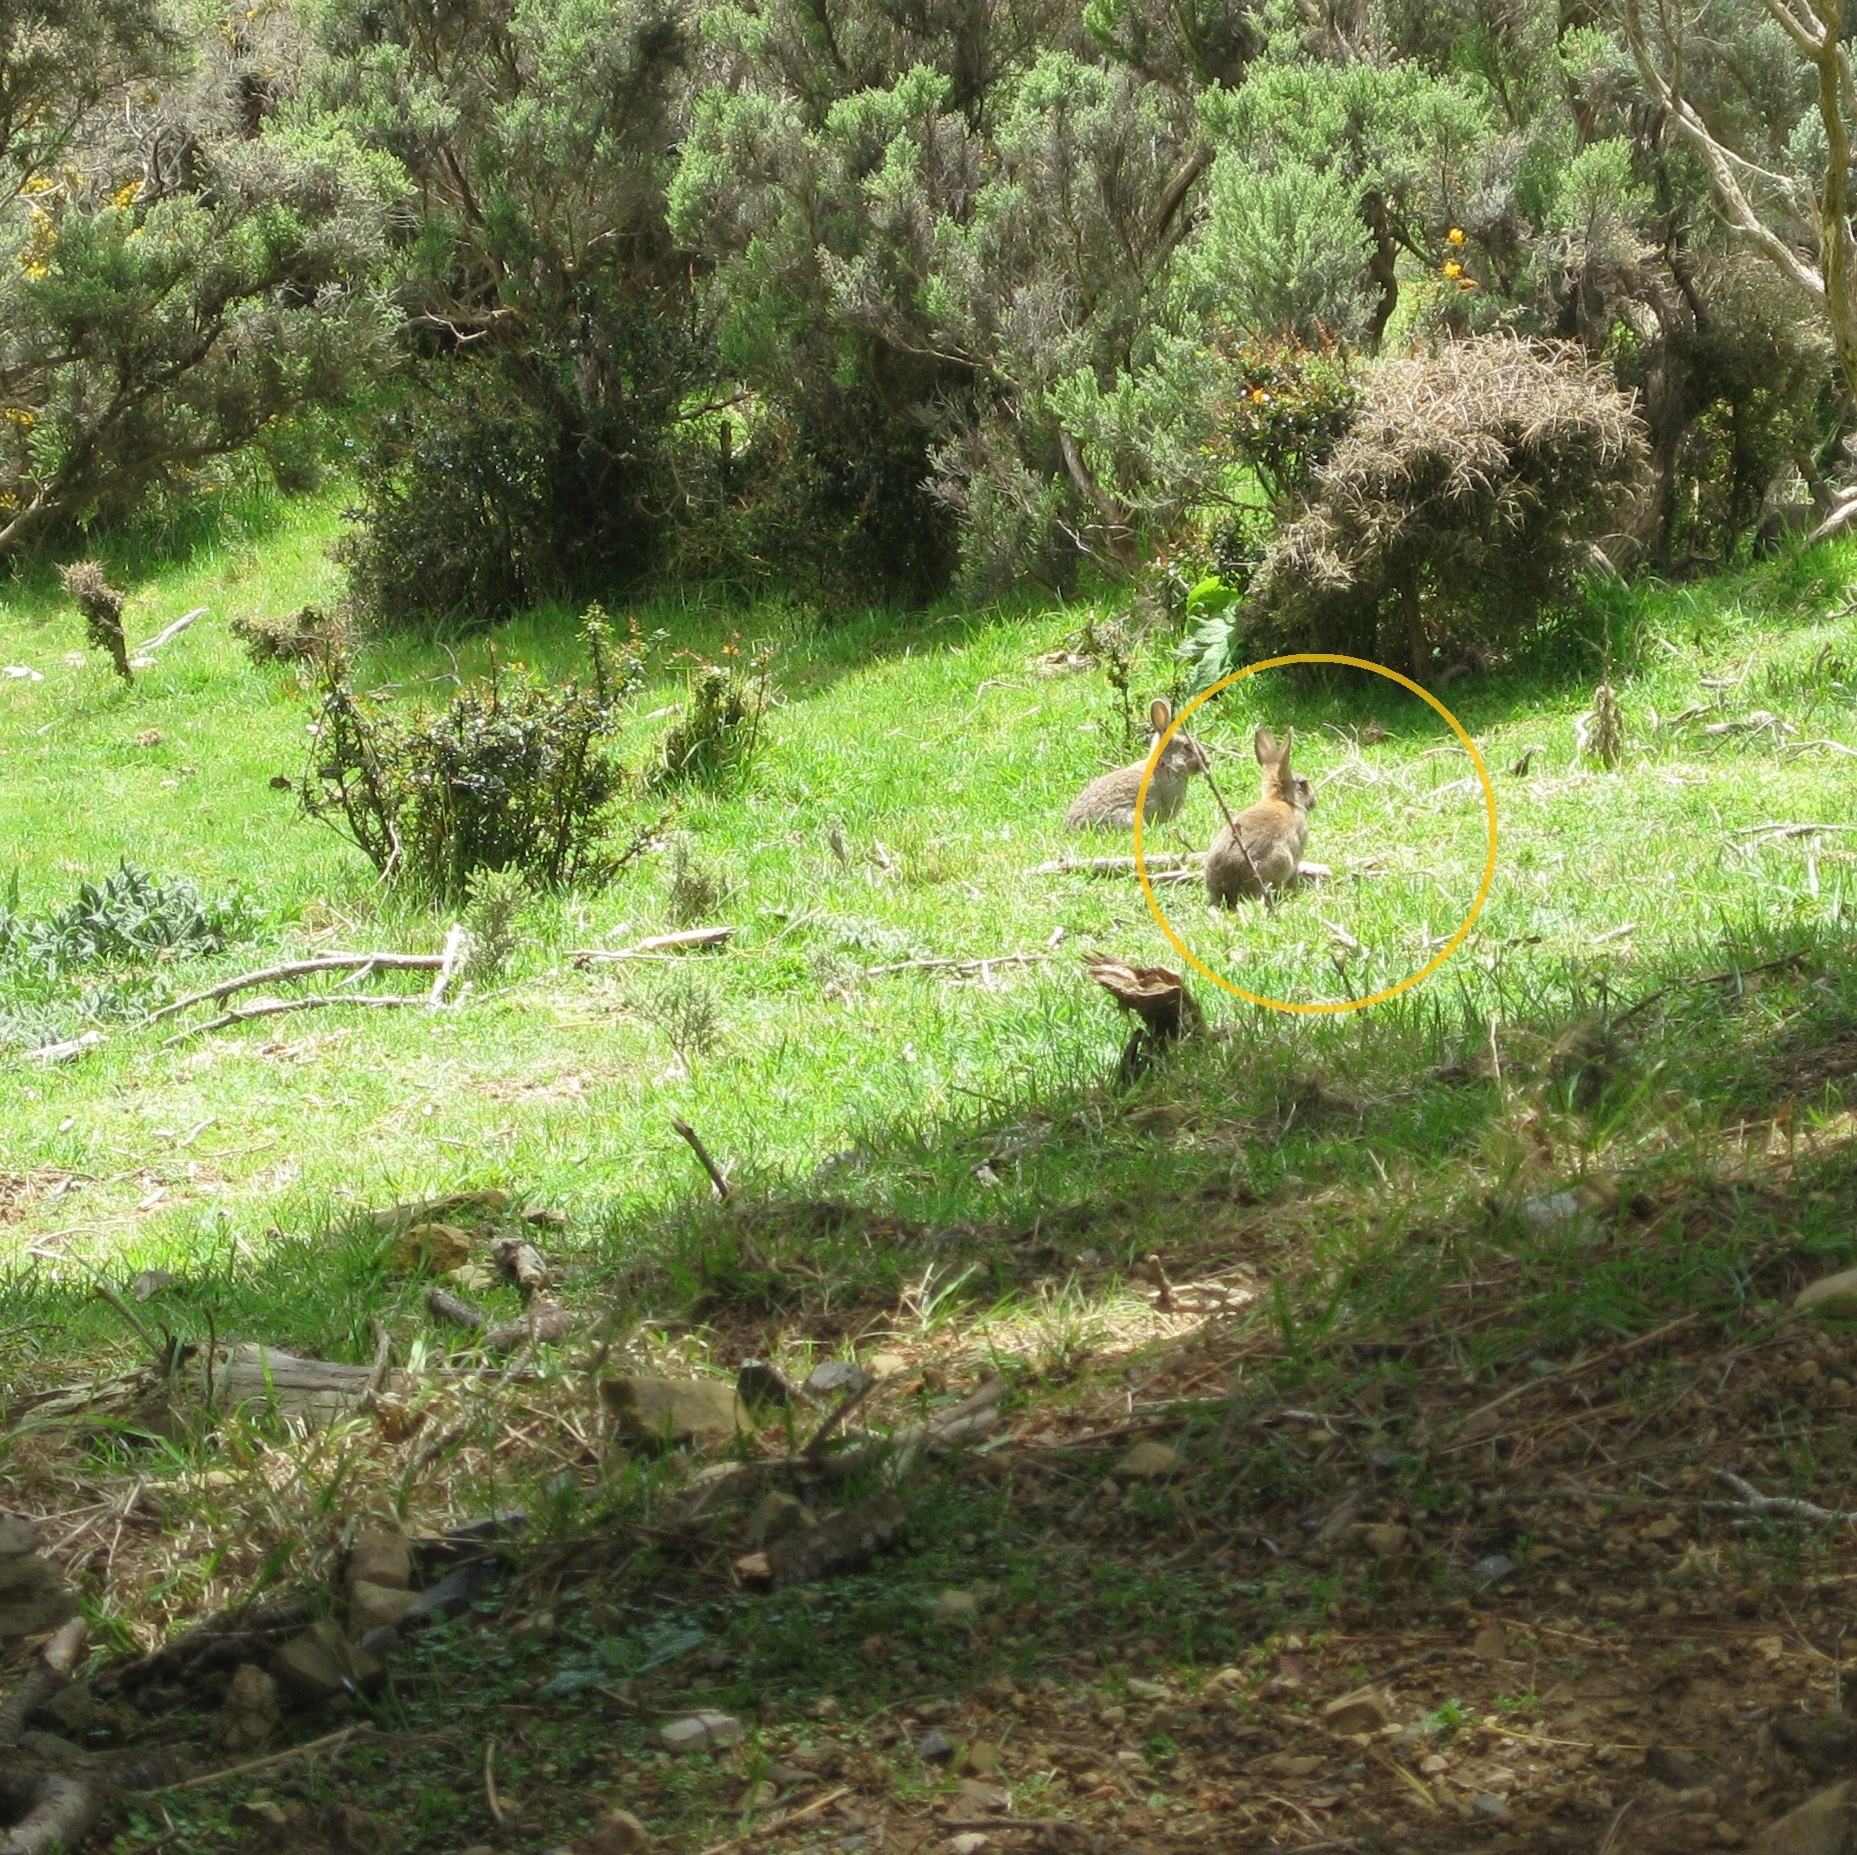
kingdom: Animalia
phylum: Chordata
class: Mammalia
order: Lagomorpha
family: Leporidae
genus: Oryctolagus
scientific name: Oryctolagus cuniculus
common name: European rabbit
